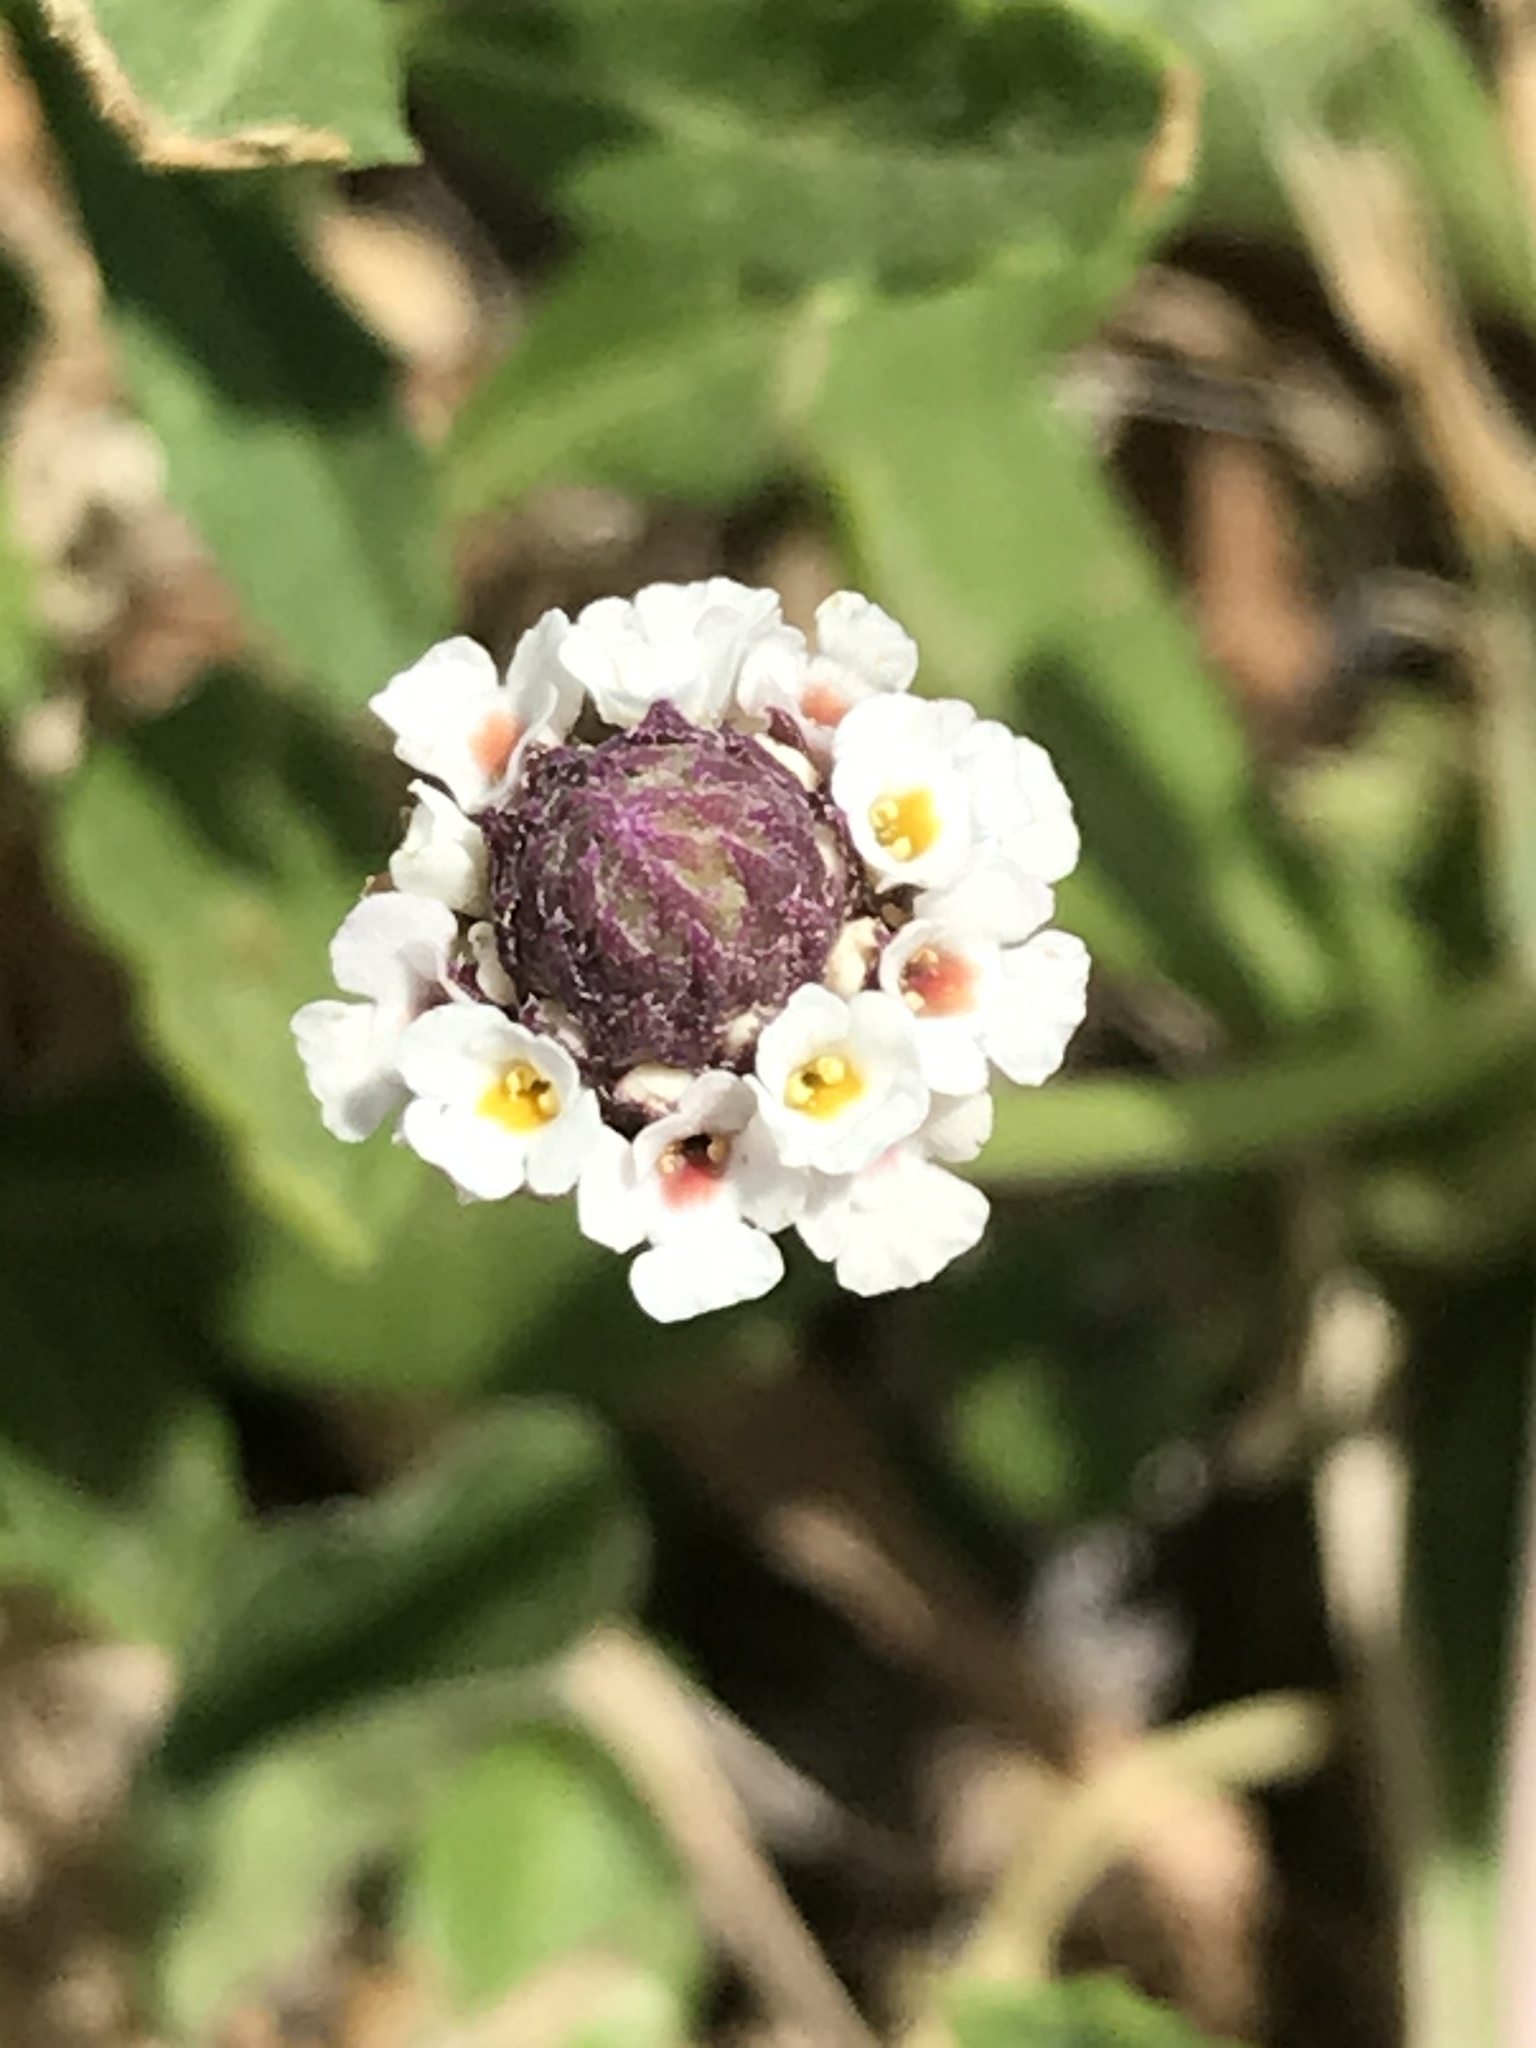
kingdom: Plantae
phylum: Tracheophyta
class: Magnoliopsida
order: Lamiales
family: Verbenaceae
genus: Phyla
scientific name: Phyla nodiflora
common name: Frogfruit
